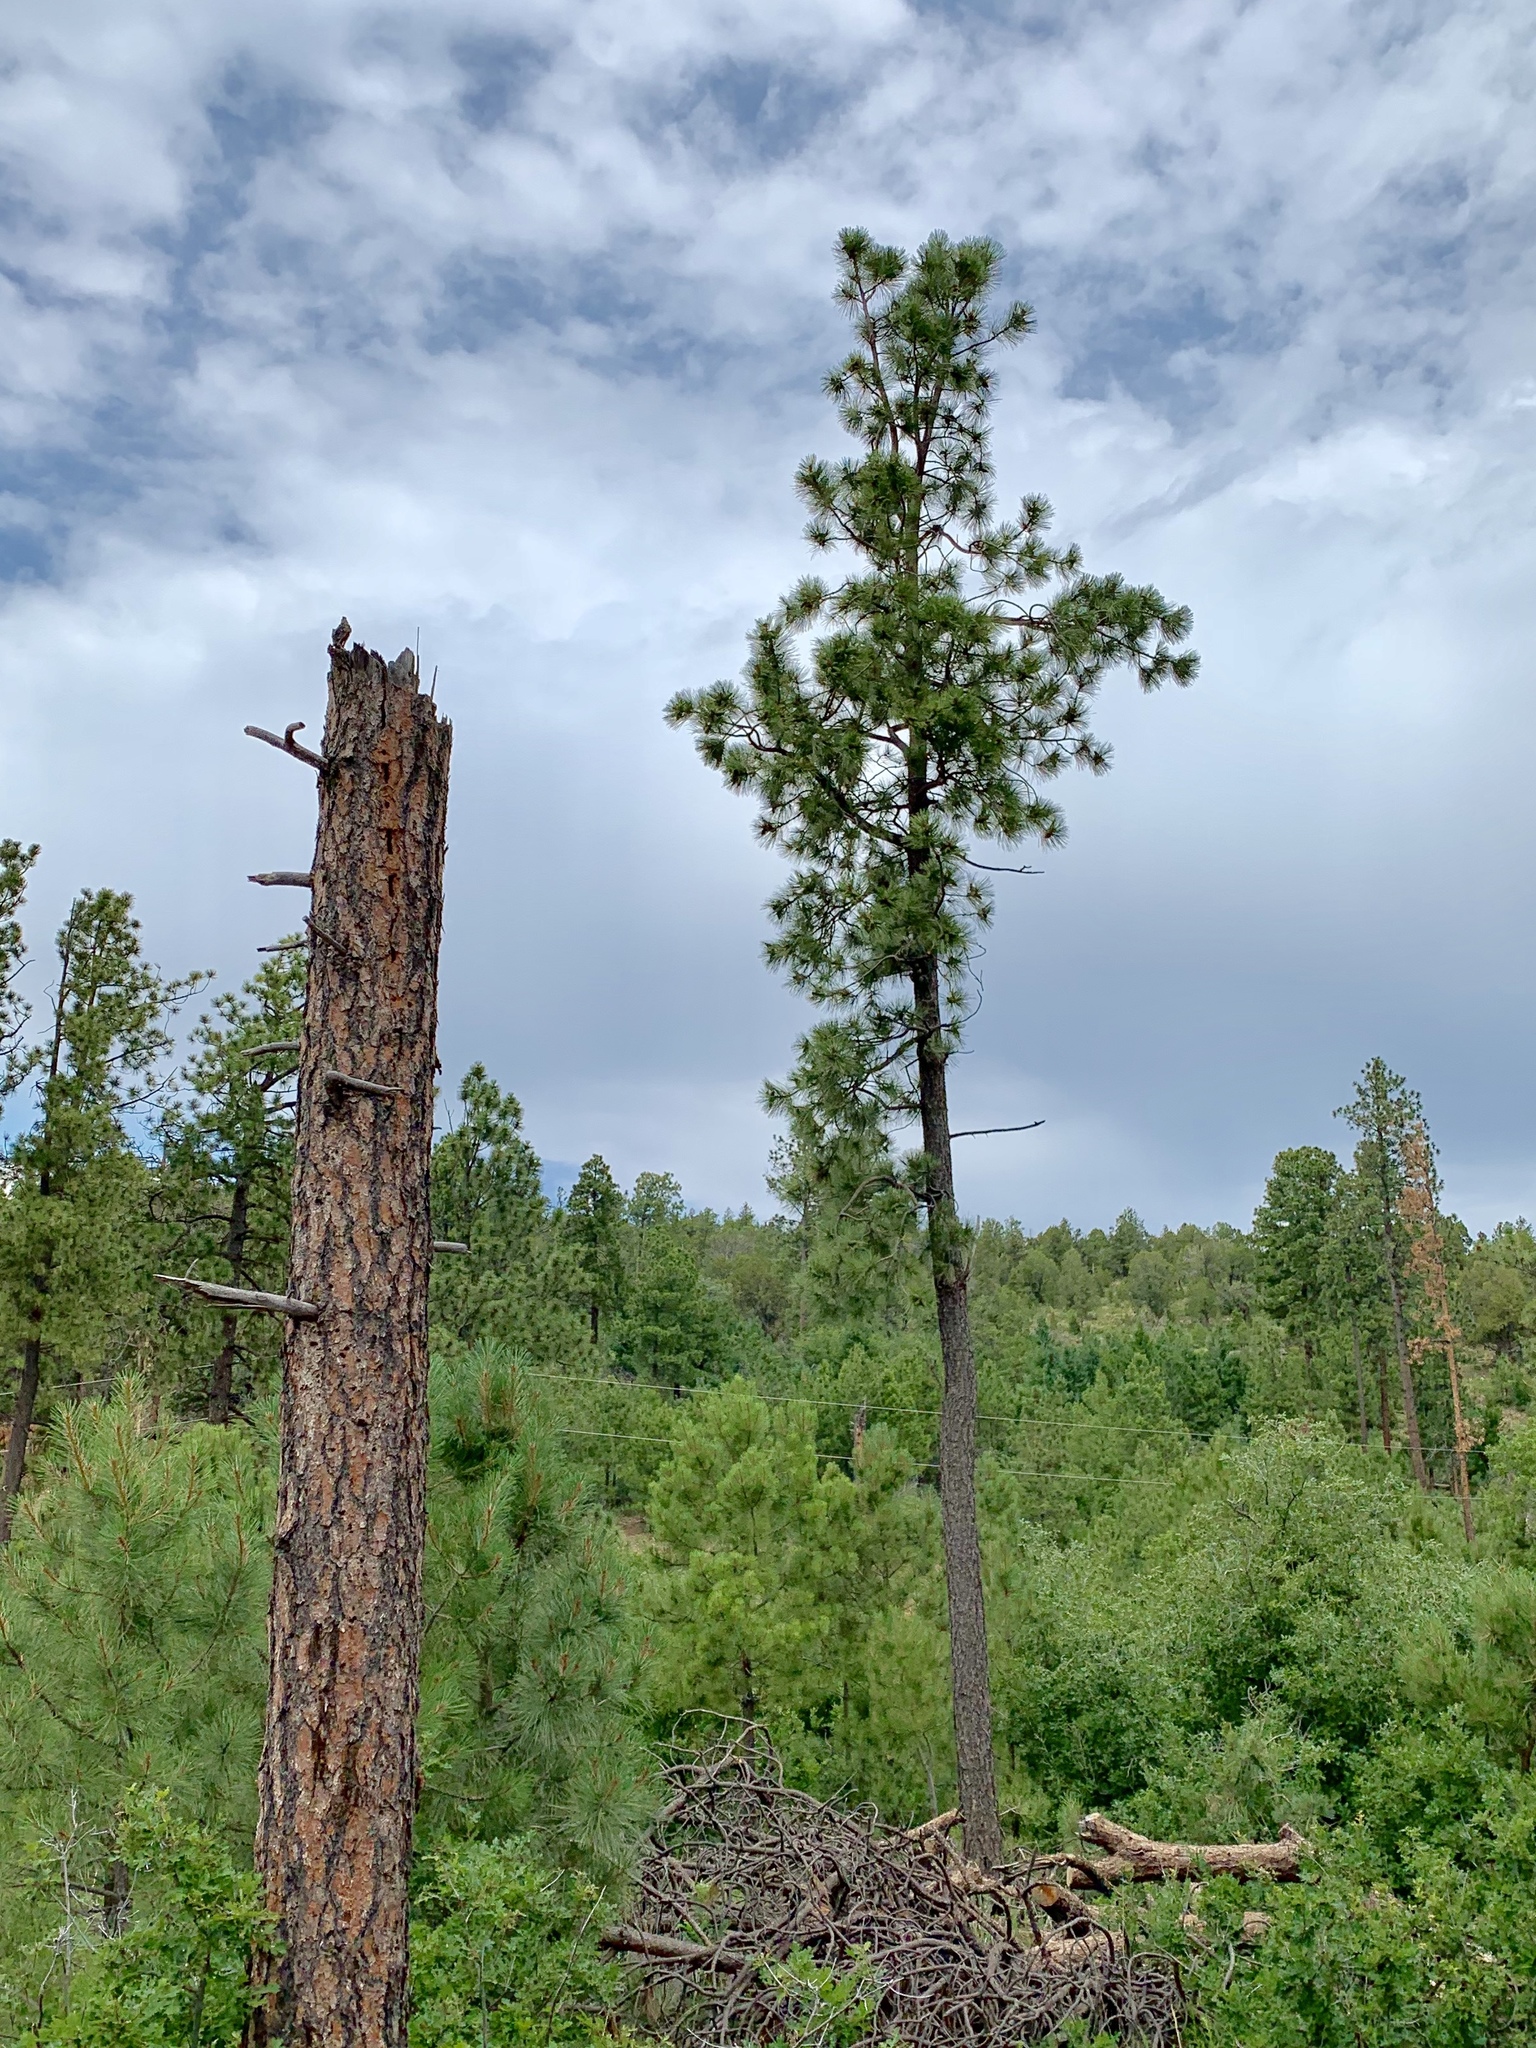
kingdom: Plantae
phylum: Tracheophyta
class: Pinopsida
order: Pinales
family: Pinaceae
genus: Pinus
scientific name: Pinus ponderosa
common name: Western yellow-pine
